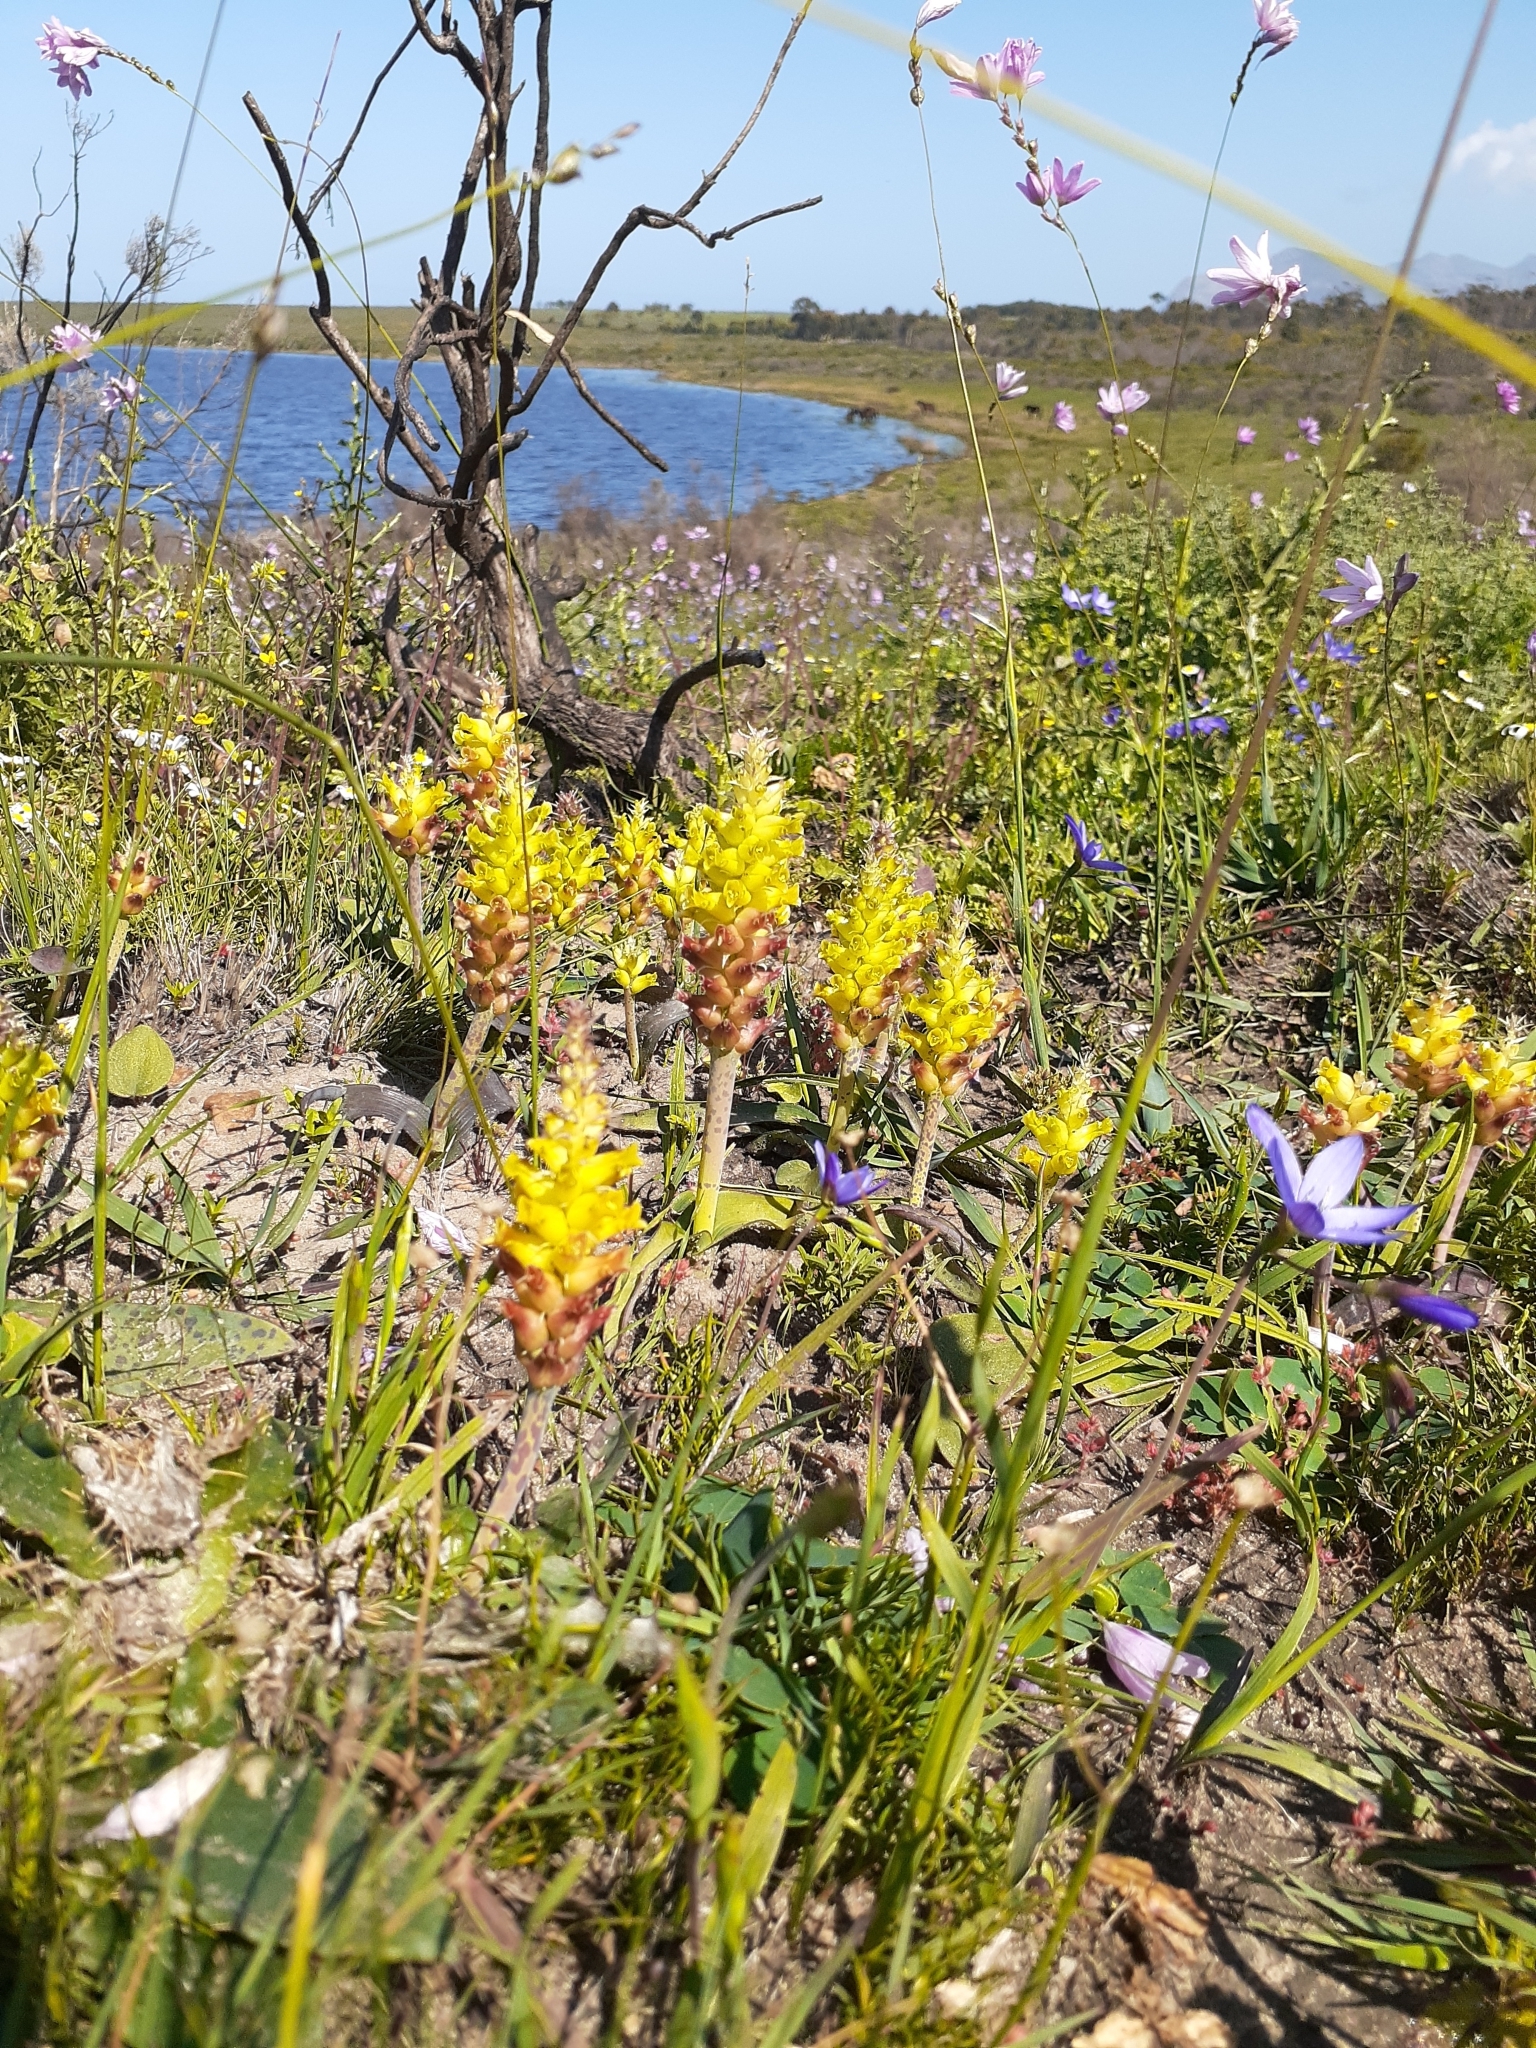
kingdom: Plantae
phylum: Tracheophyta
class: Liliopsida
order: Asparagales
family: Asparagaceae
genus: Lachenalia
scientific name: Lachenalia lutea
